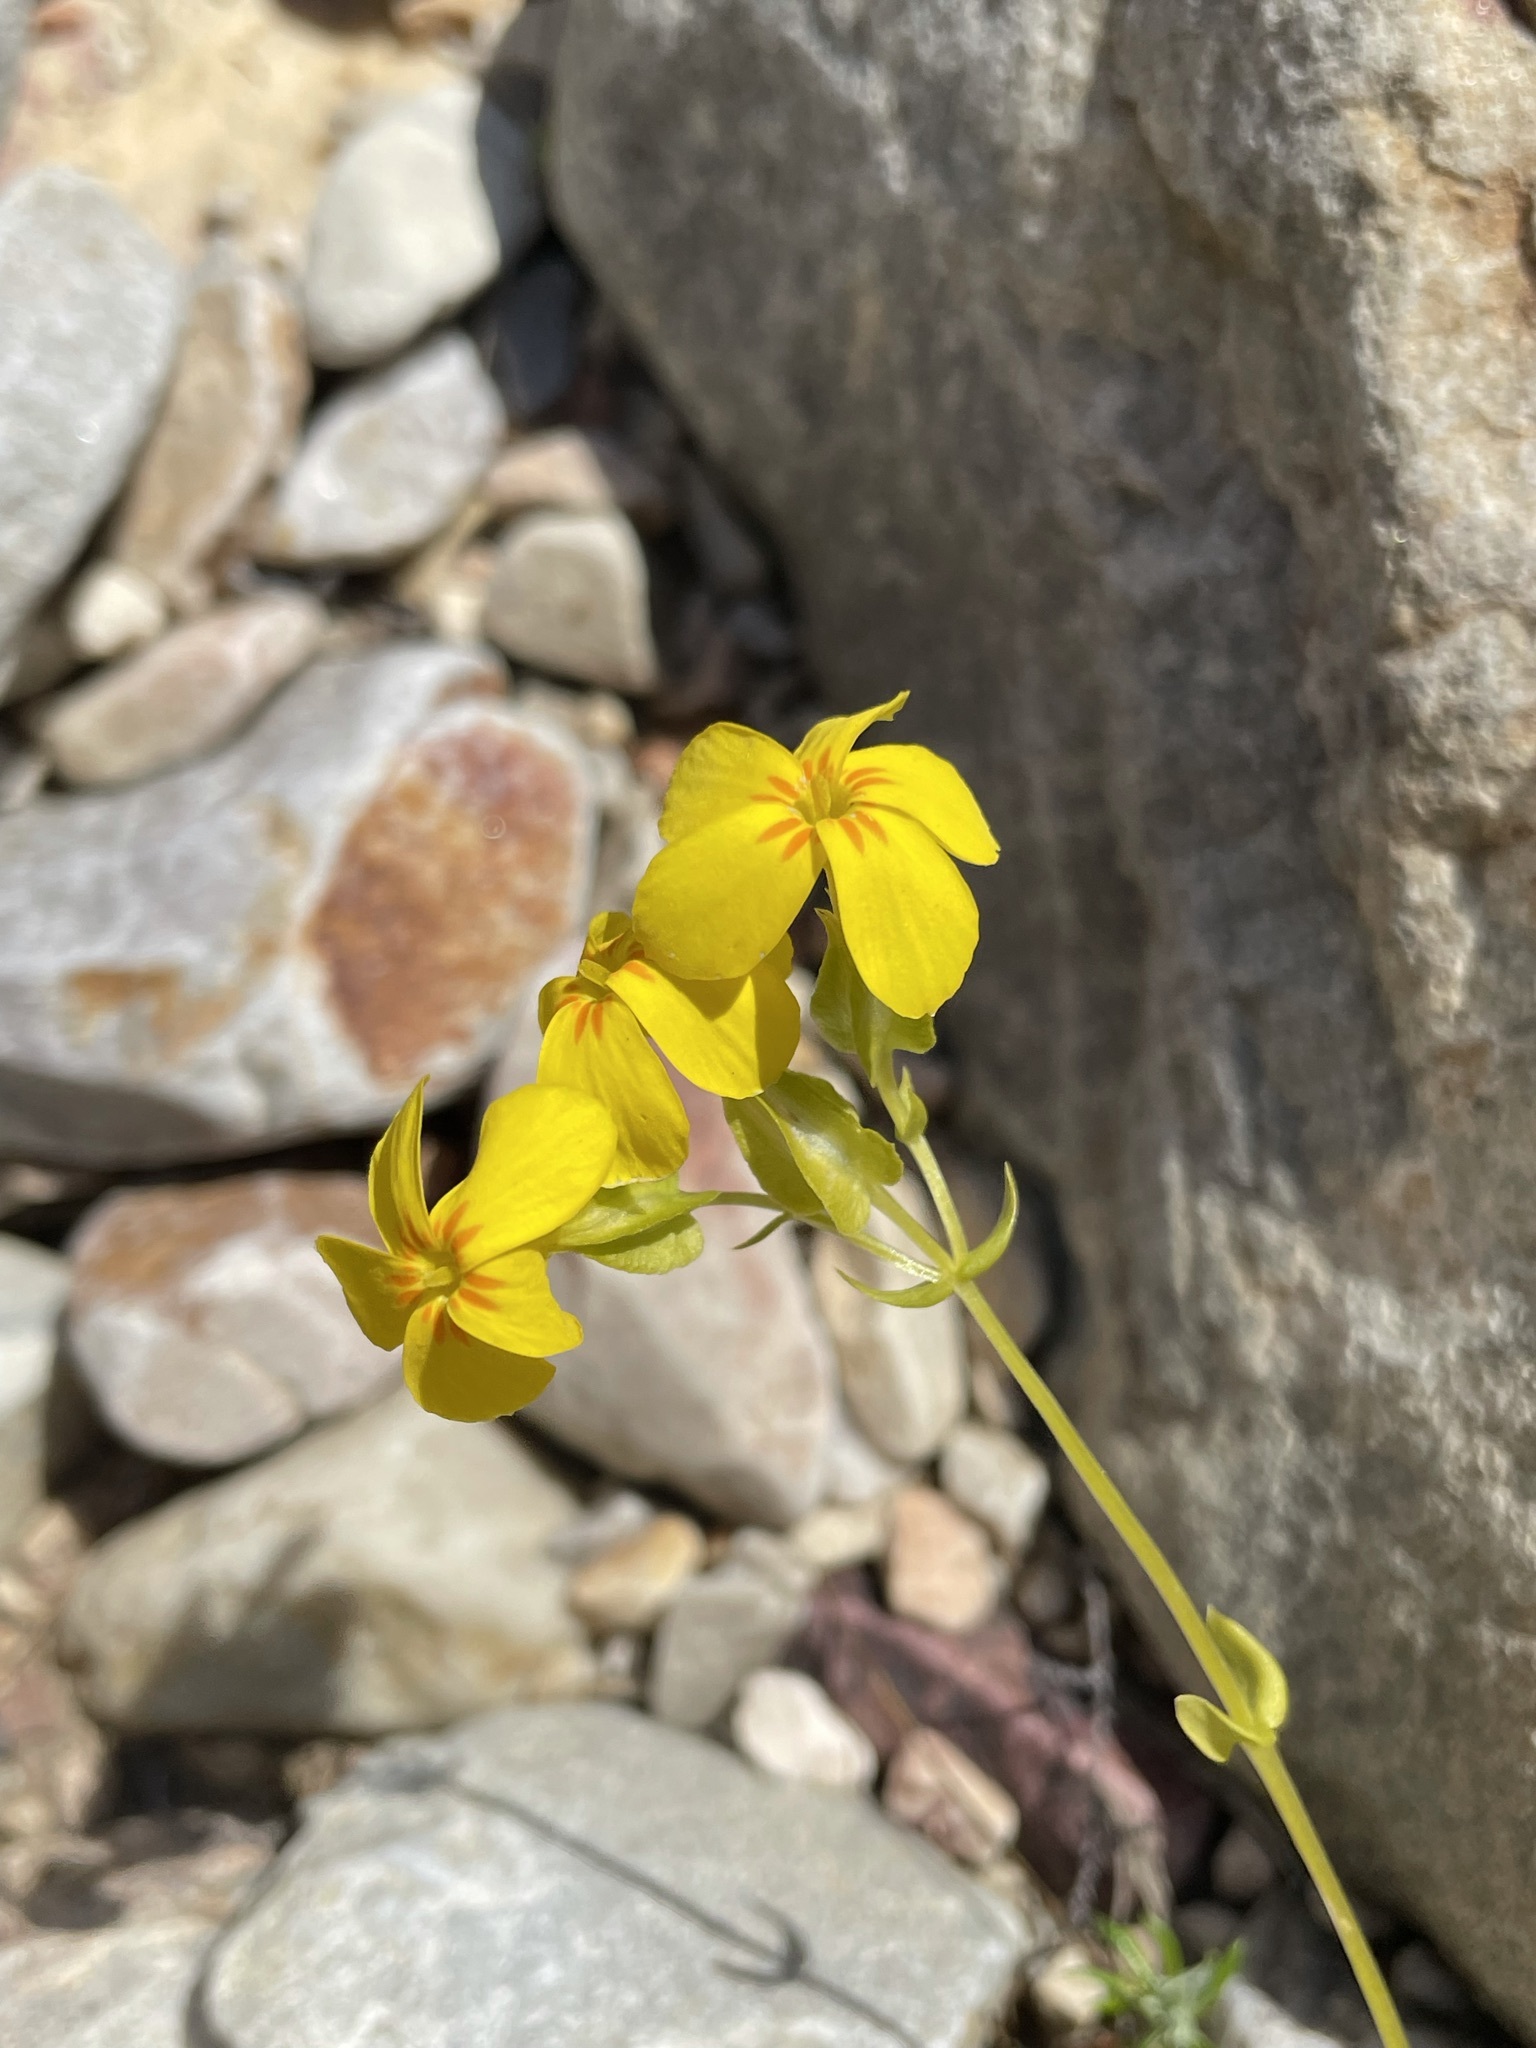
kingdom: Plantae
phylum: Tracheophyta
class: Magnoliopsida
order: Gentianales
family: Gentianaceae
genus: Sebaea
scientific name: Sebaea exacoides
